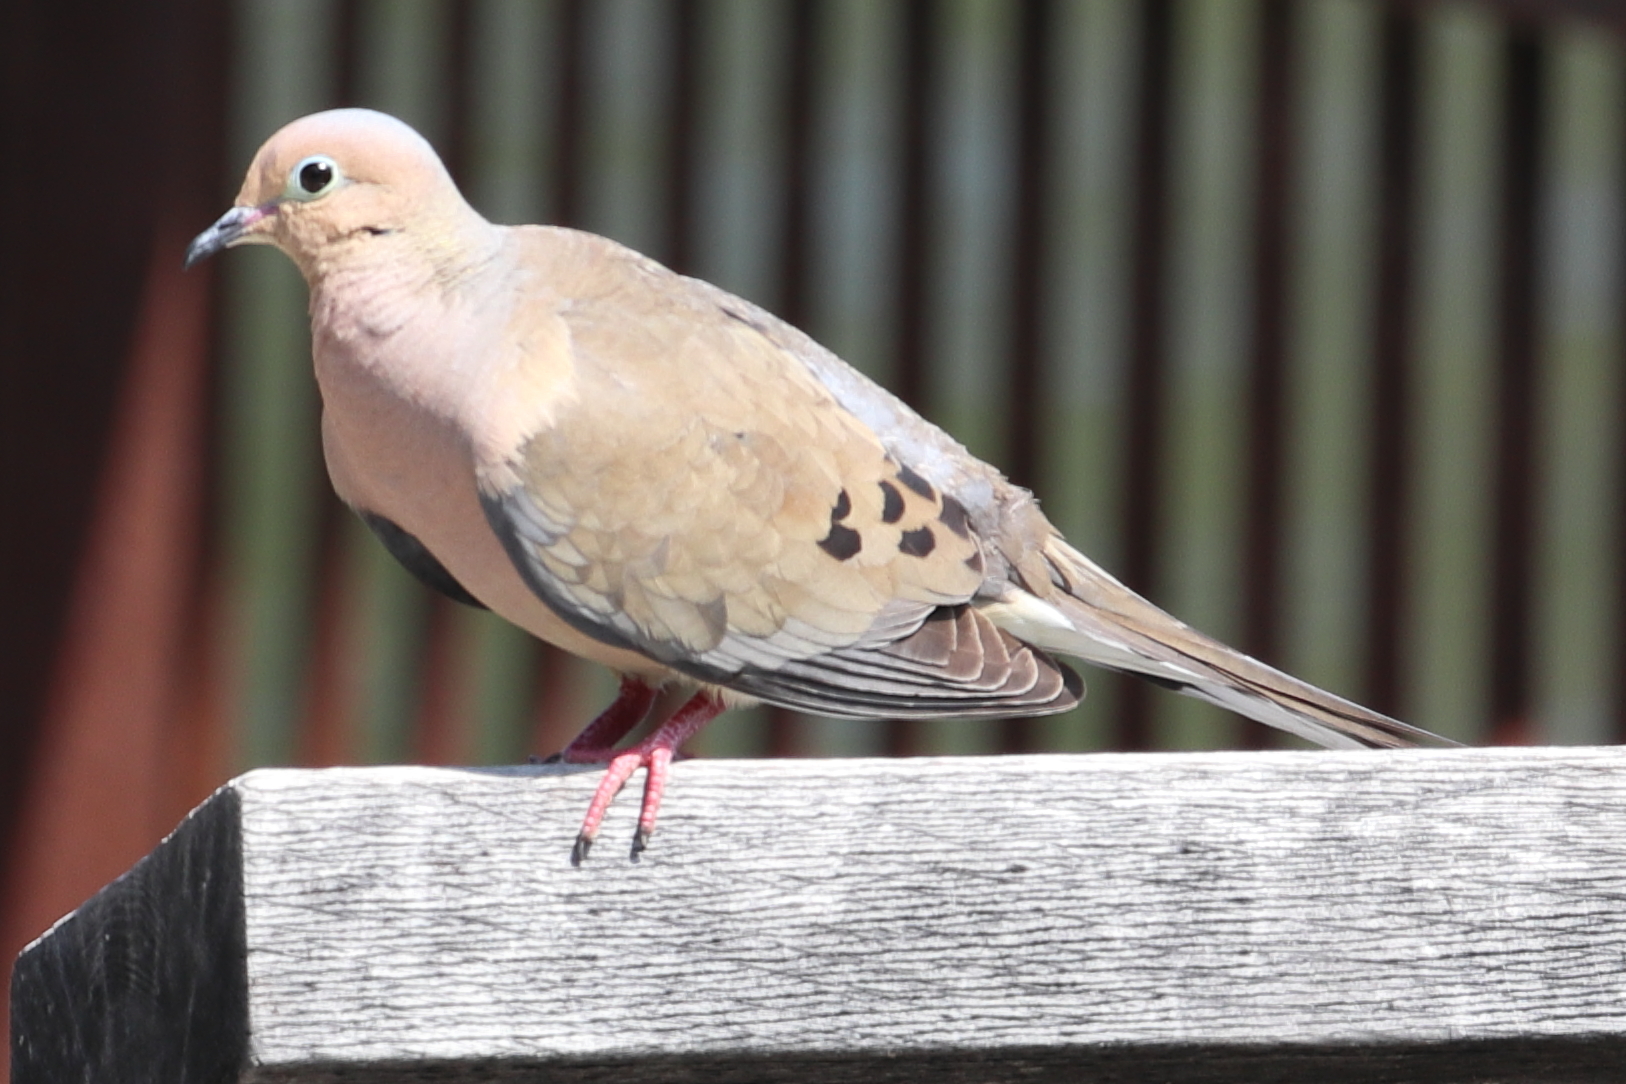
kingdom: Animalia
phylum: Chordata
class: Aves
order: Columbiformes
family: Columbidae
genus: Zenaida
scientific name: Zenaida macroura
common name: Mourning dove
